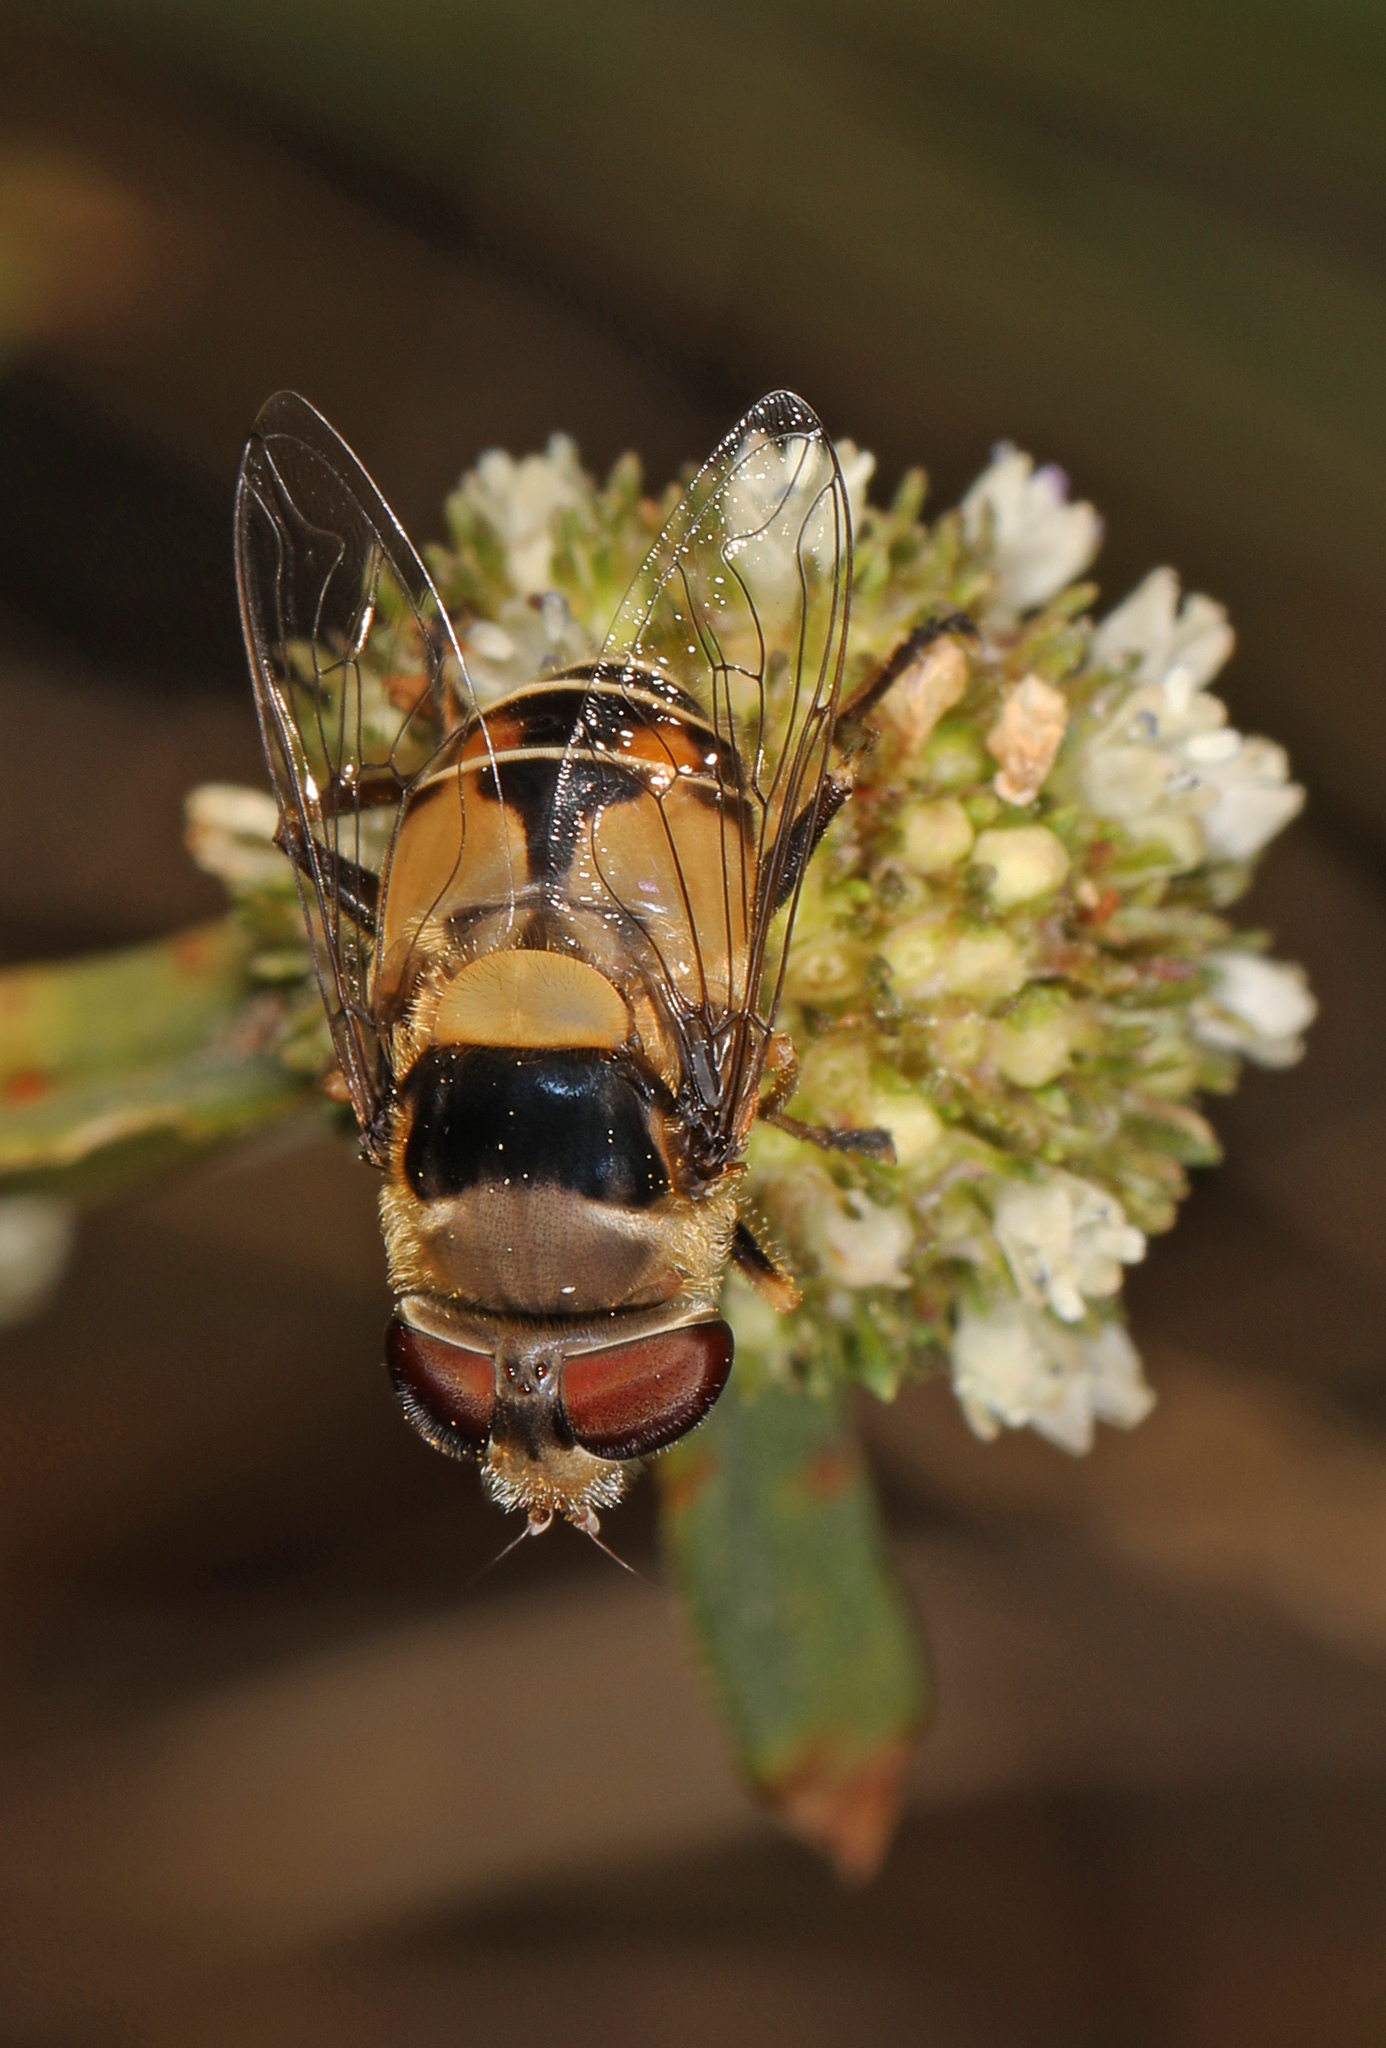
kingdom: Animalia
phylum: Arthropoda
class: Insecta
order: Diptera
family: Syrphidae
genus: Palpada
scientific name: Palpada pusilla
